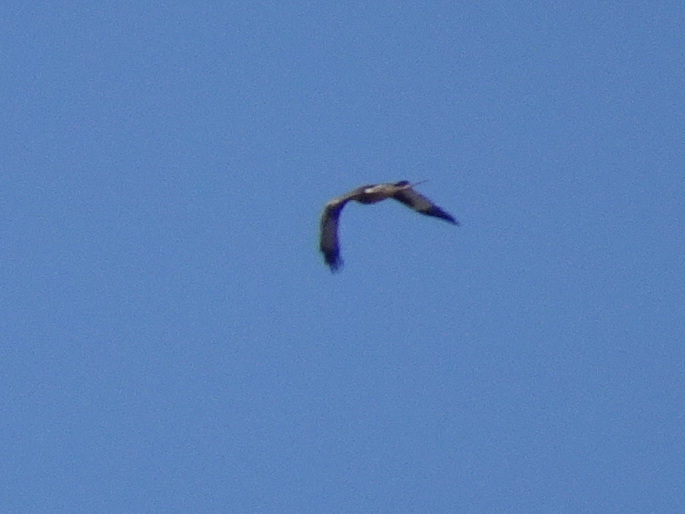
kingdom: Animalia
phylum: Chordata
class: Aves
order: Accipitriformes
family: Accipitridae
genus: Milvus
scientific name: Milvus milvus
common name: Red kite
